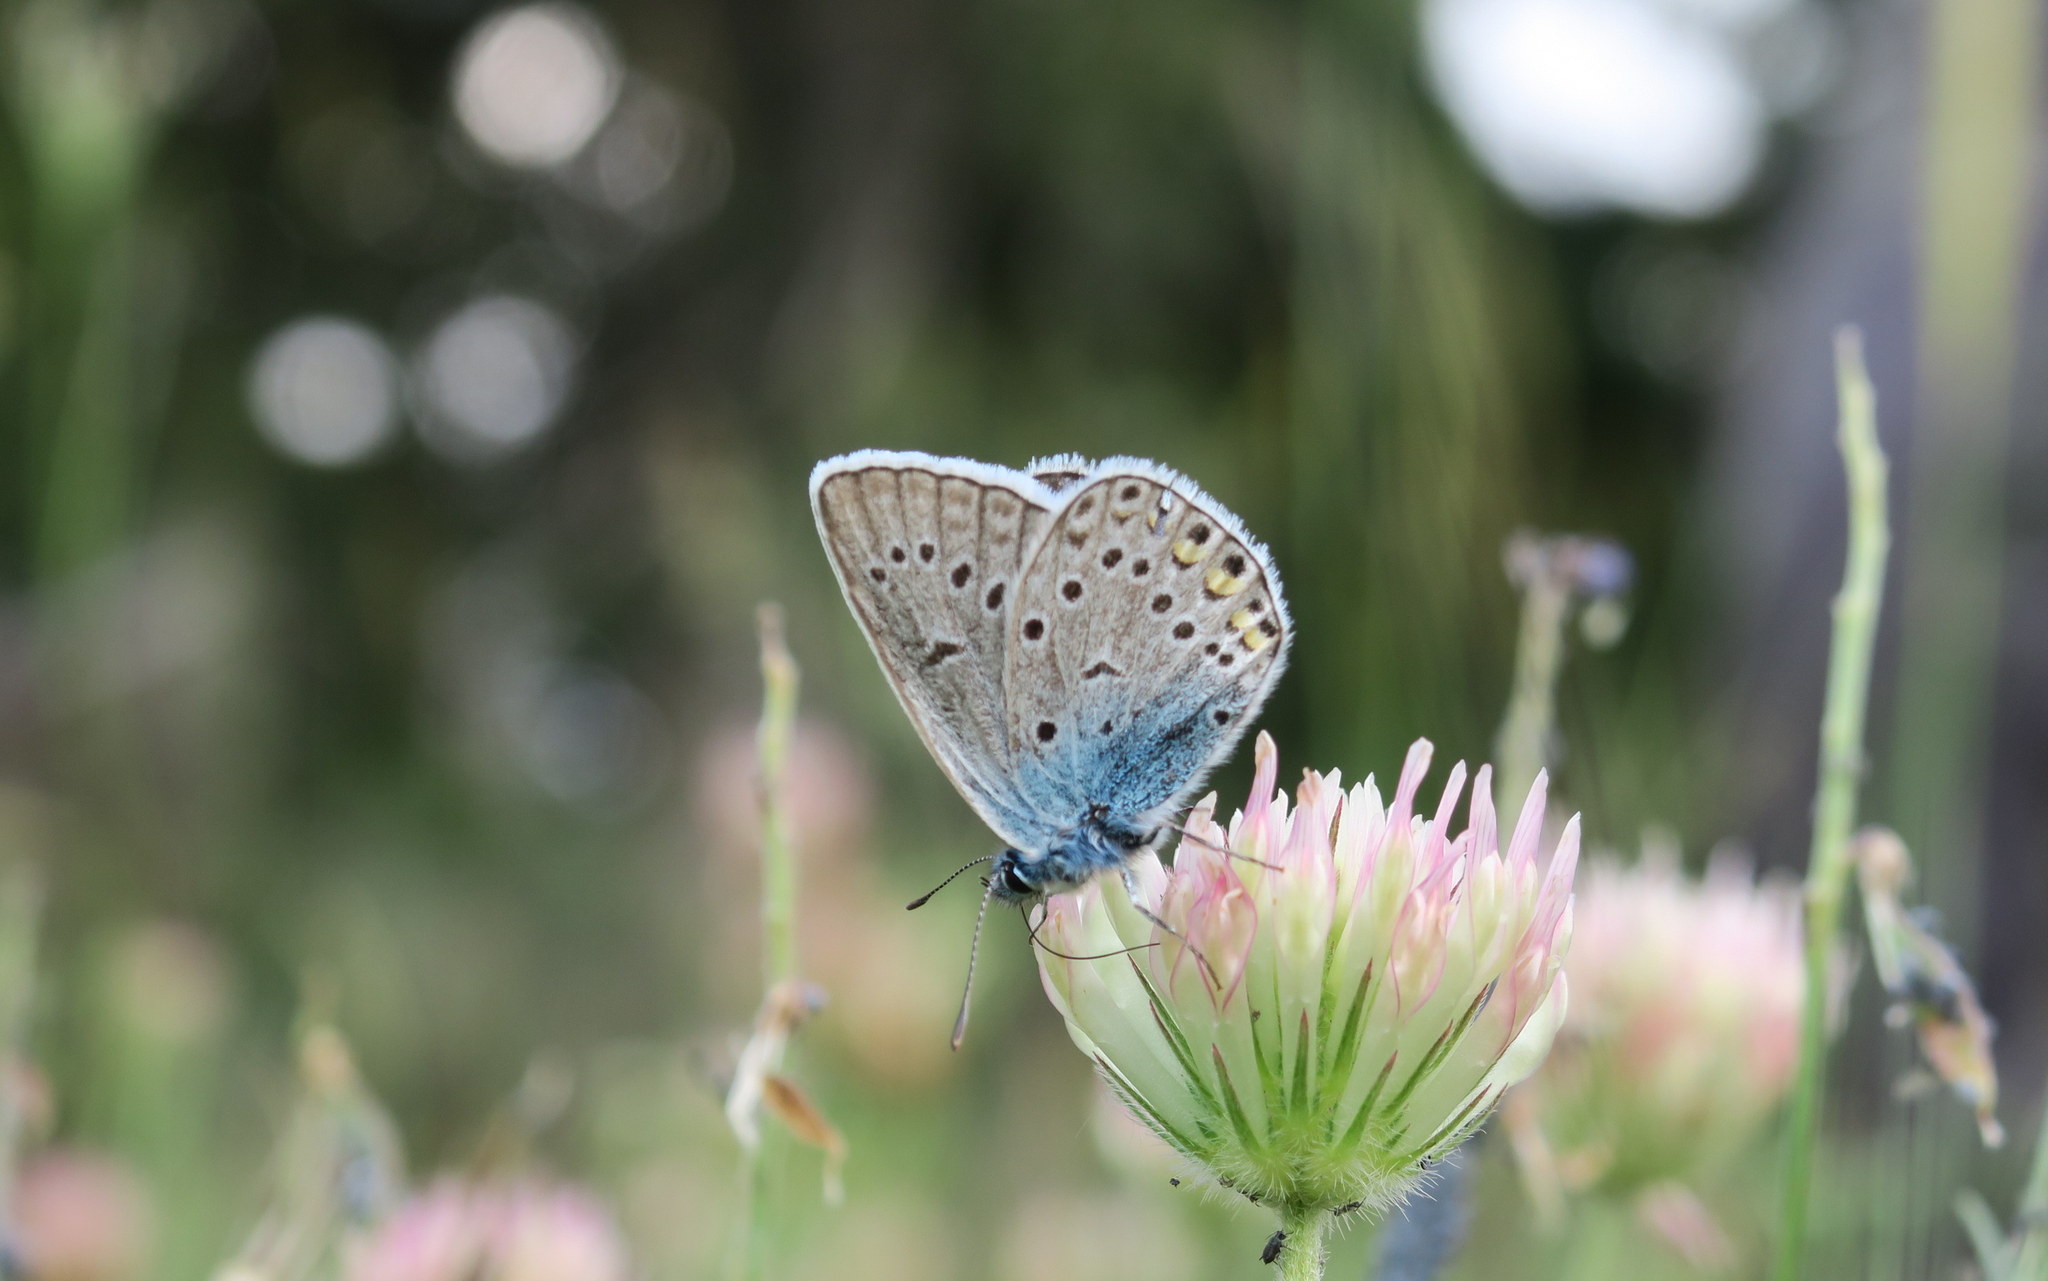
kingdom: Animalia
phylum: Arthropoda
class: Insecta
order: Lepidoptera
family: Lycaenidae
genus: Plebejus
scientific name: Plebejus amanda
